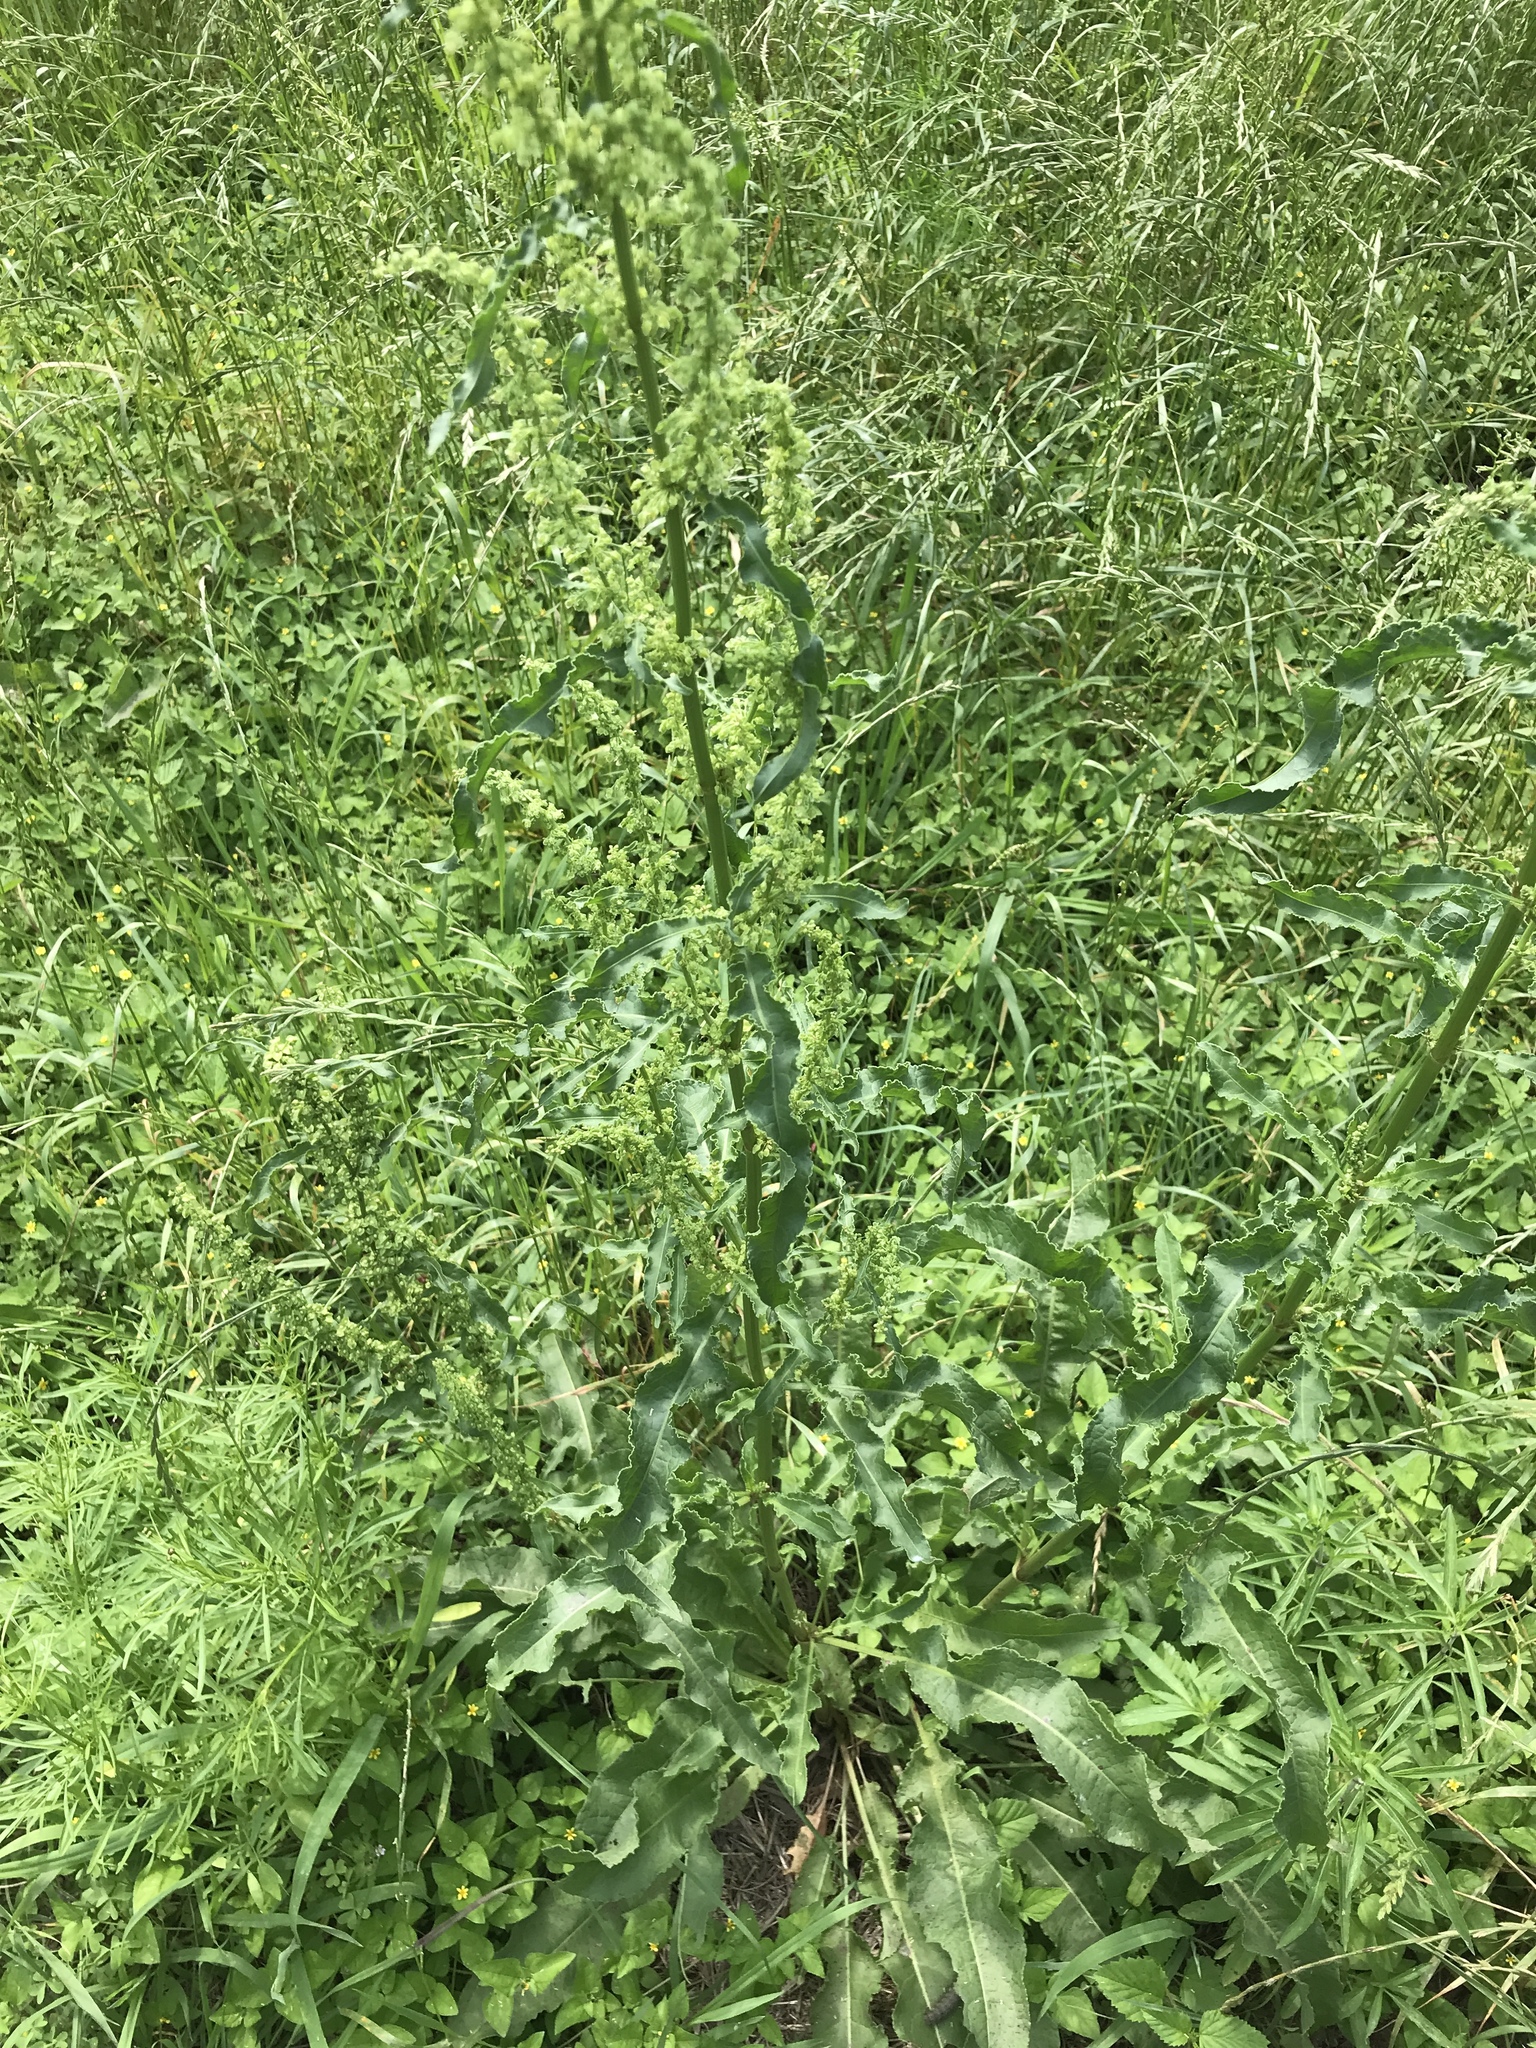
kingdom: Plantae
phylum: Tracheophyta
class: Magnoliopsida
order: Caryophyllales
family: Polygonaceae
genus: Rumex
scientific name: Rumex crispus
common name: Curled dock
